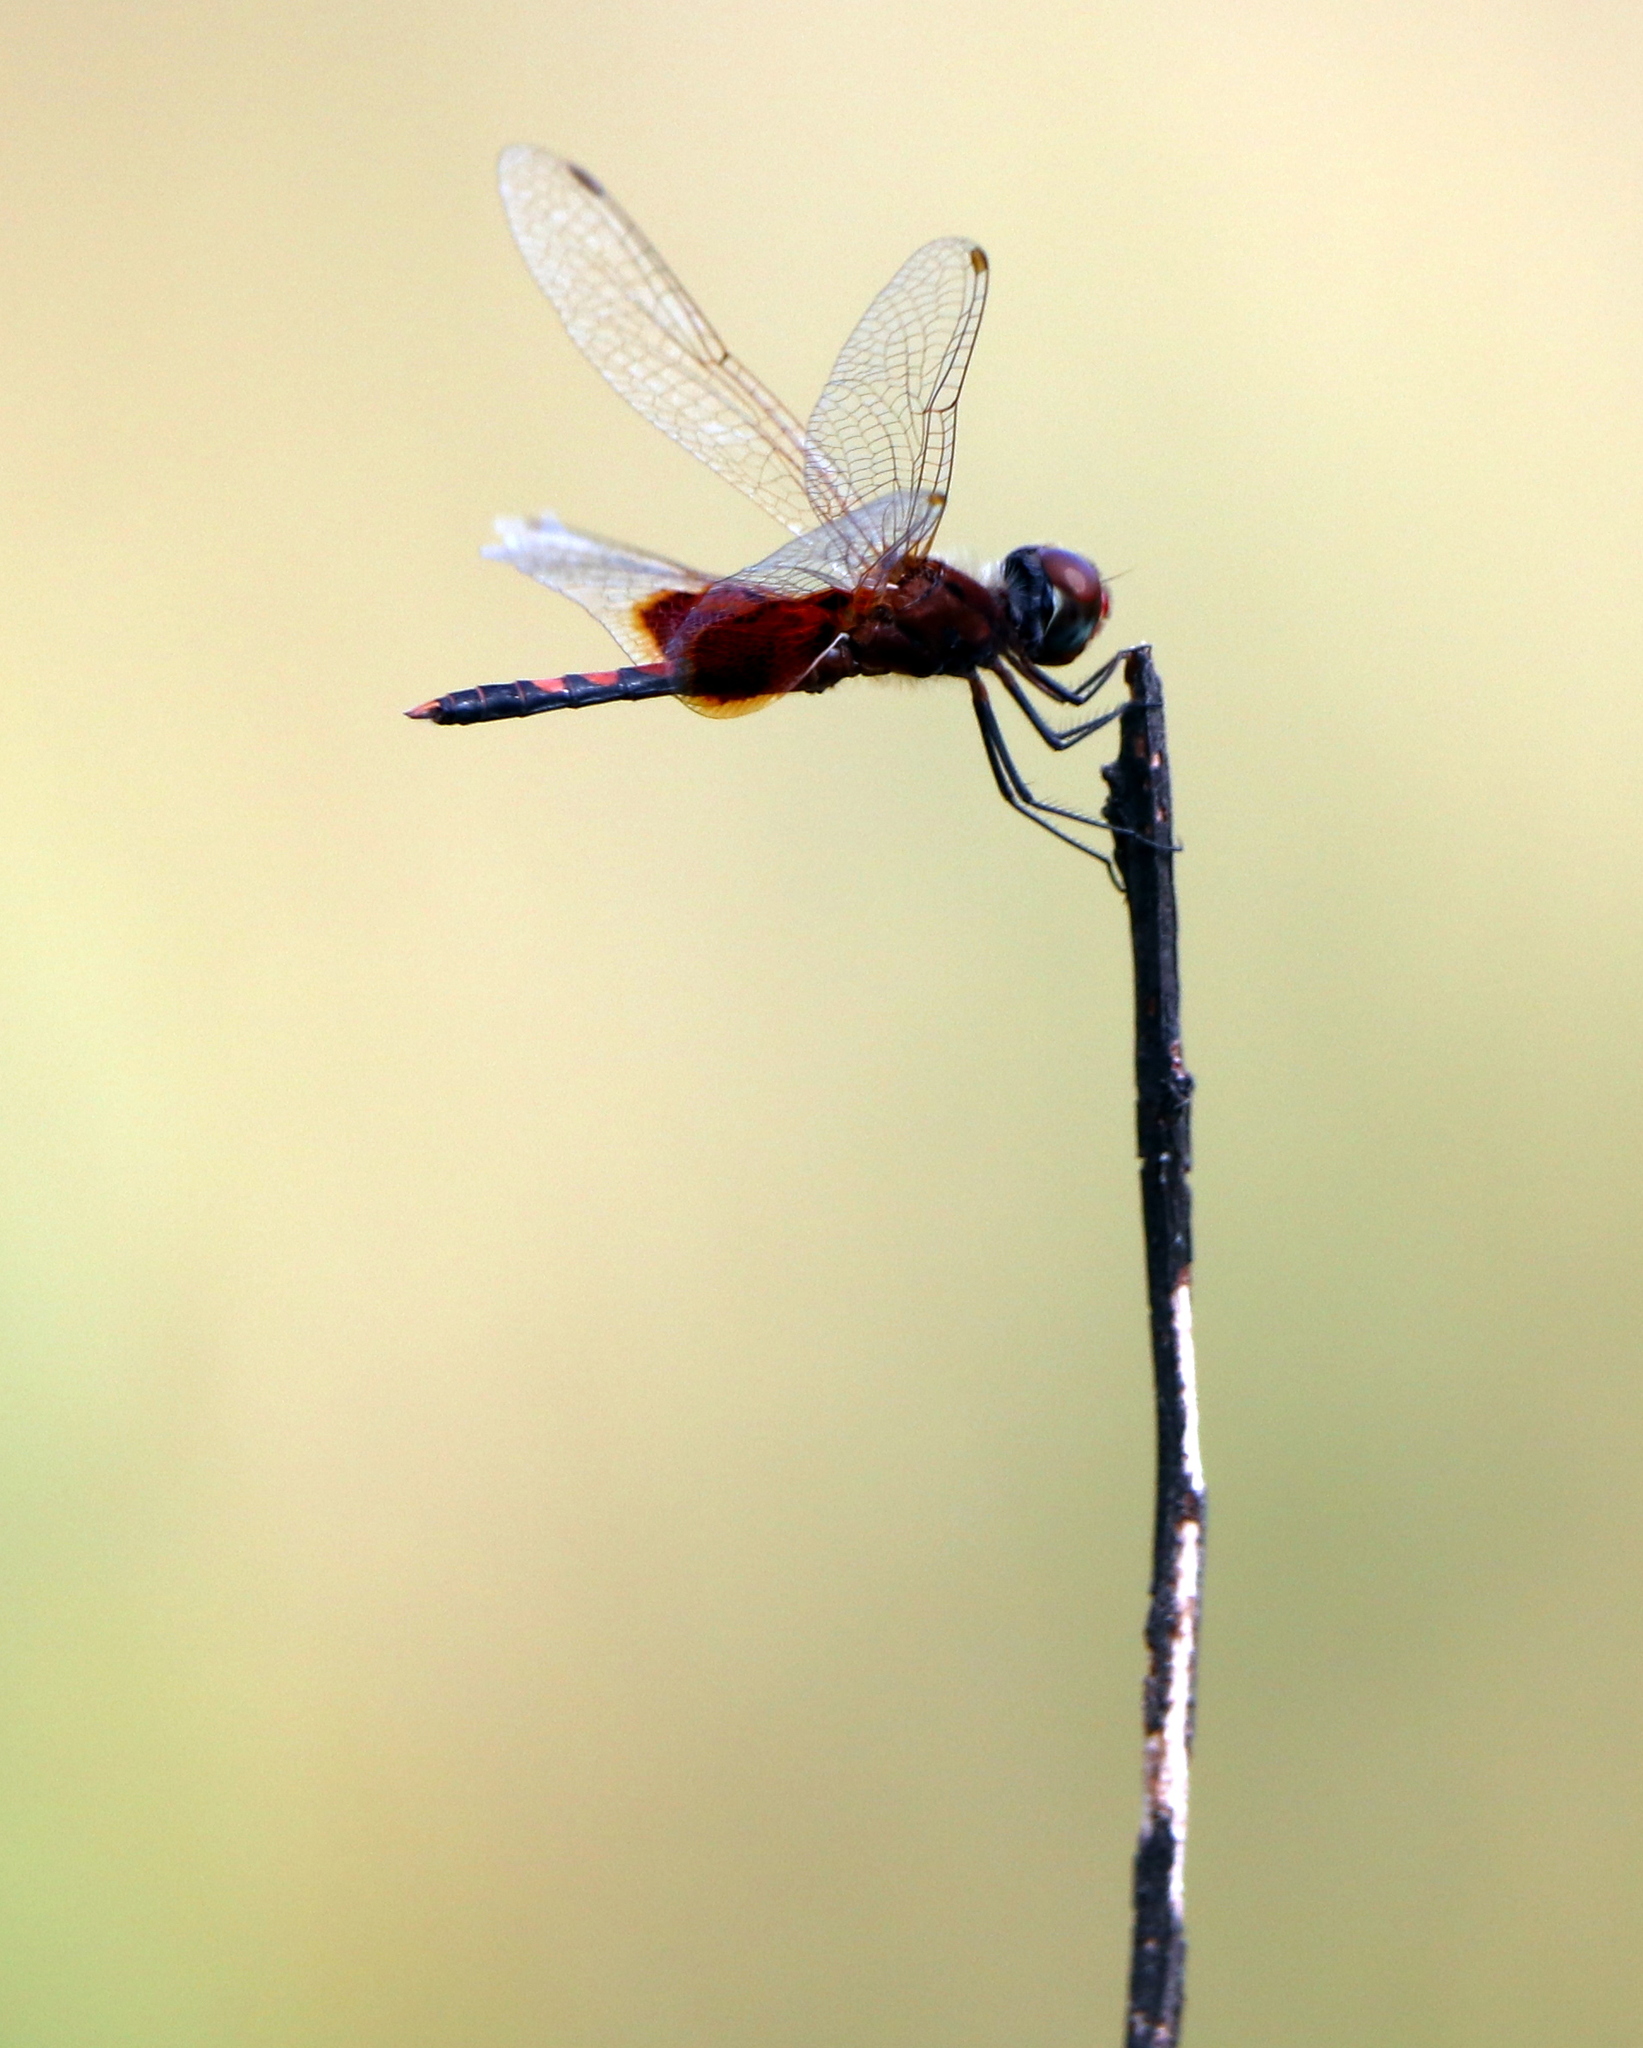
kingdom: Animalia
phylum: Arthropoda
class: Insecta
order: Odonata
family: Libellulidae
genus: Celithemis
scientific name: Celithemis amanda
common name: Amanda's pennant
